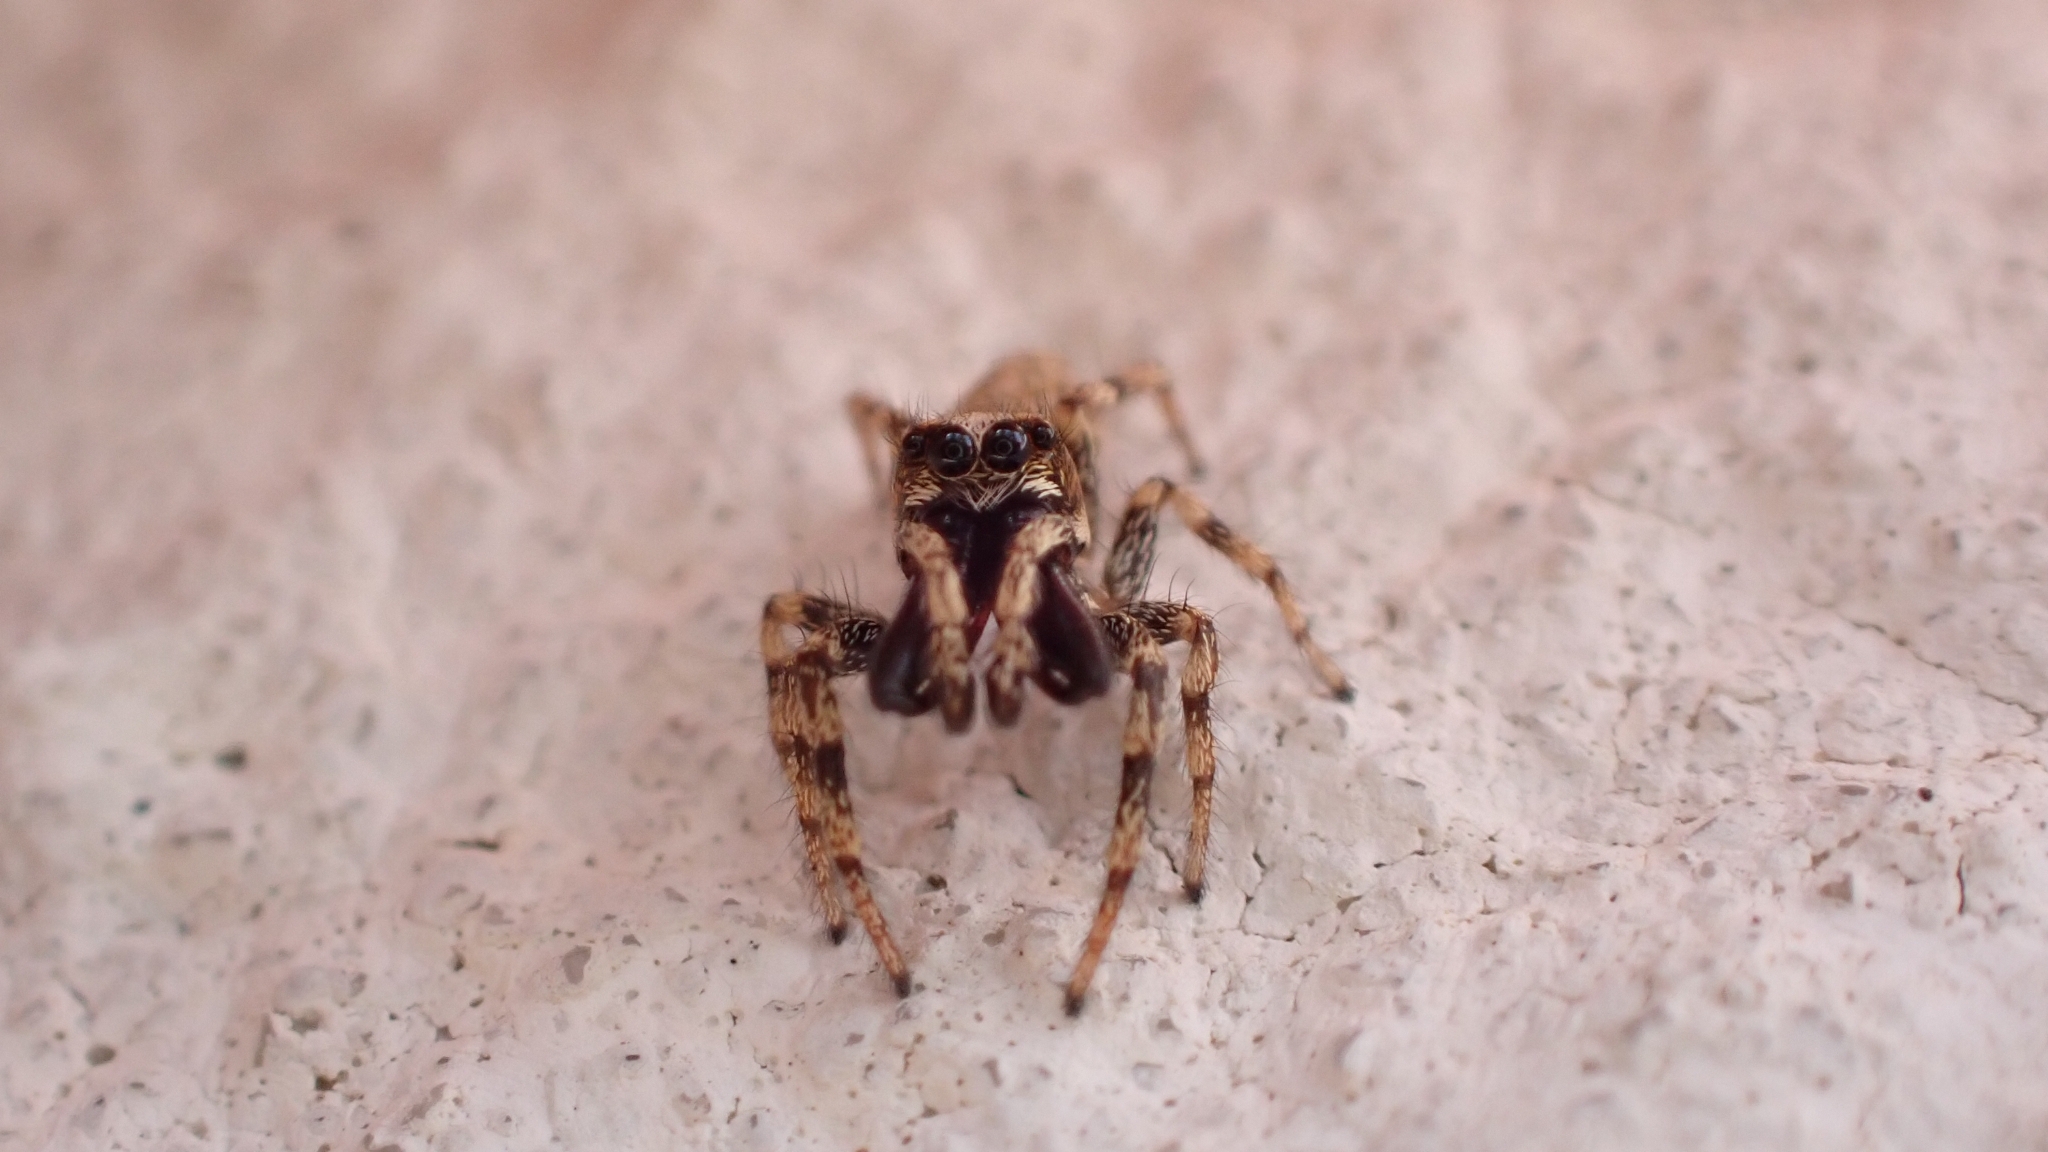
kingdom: Animalia
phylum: Arthropoda
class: Arachnida
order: Araneae
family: Salticidae
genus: Salticus
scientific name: Salticus mutabilis
